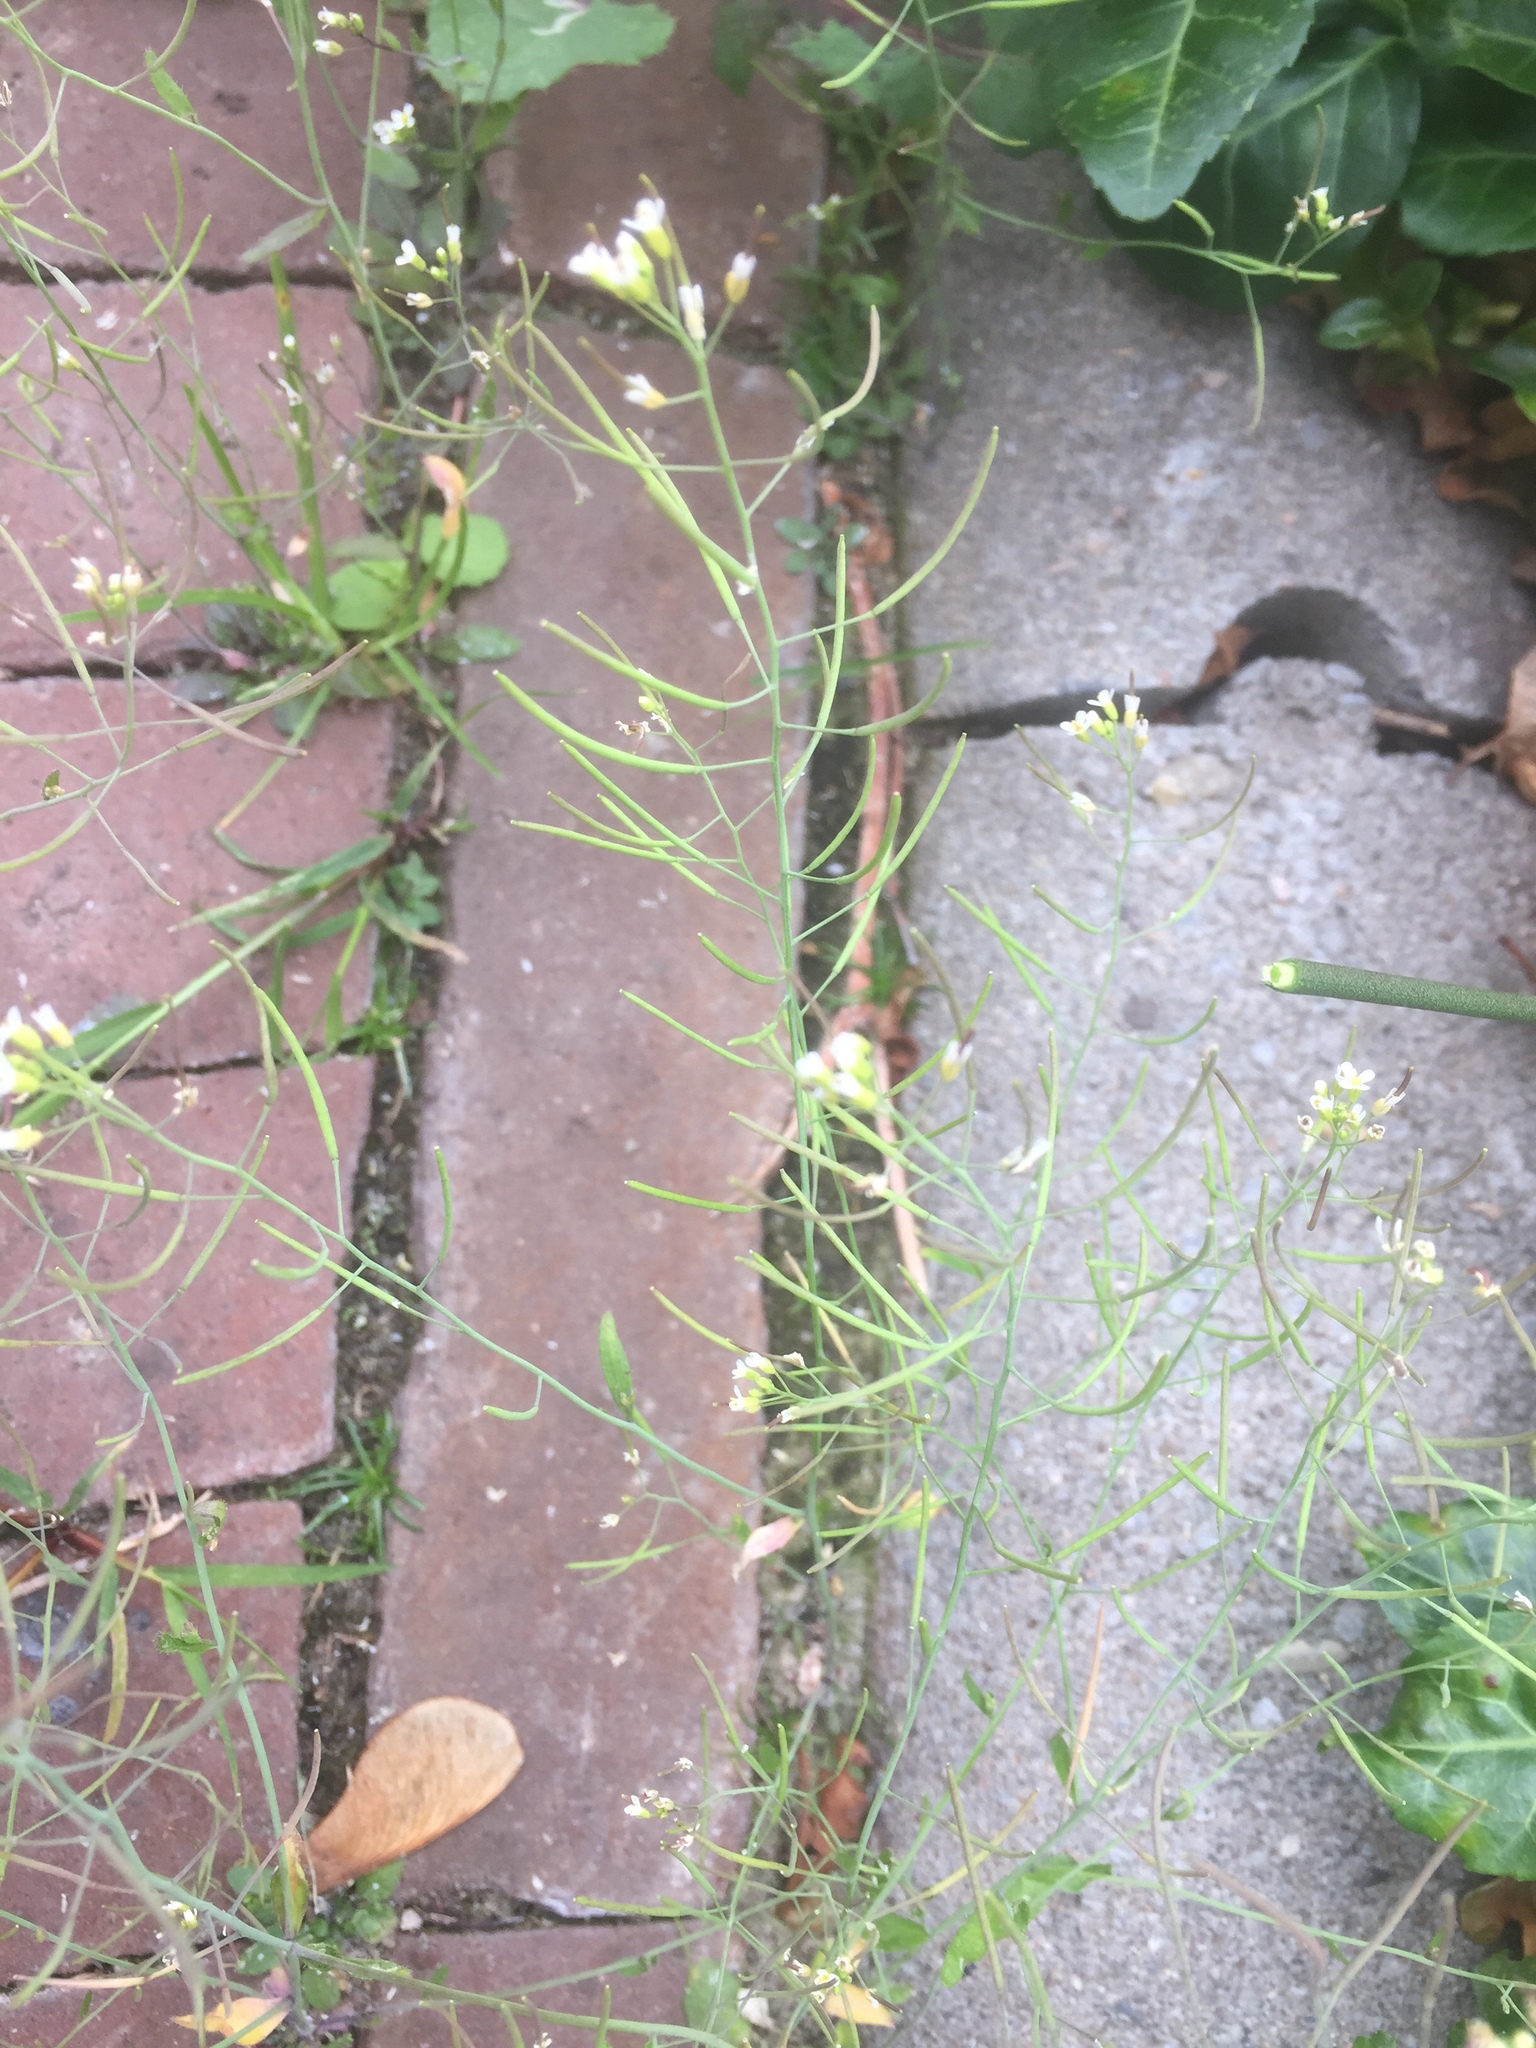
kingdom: Plantae
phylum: Tracheophyta
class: Magnoliopsida
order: Brassicales
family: Brassicaceae
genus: Arabidopsis
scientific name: Arabidopsis thaliana
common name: Thale cress
